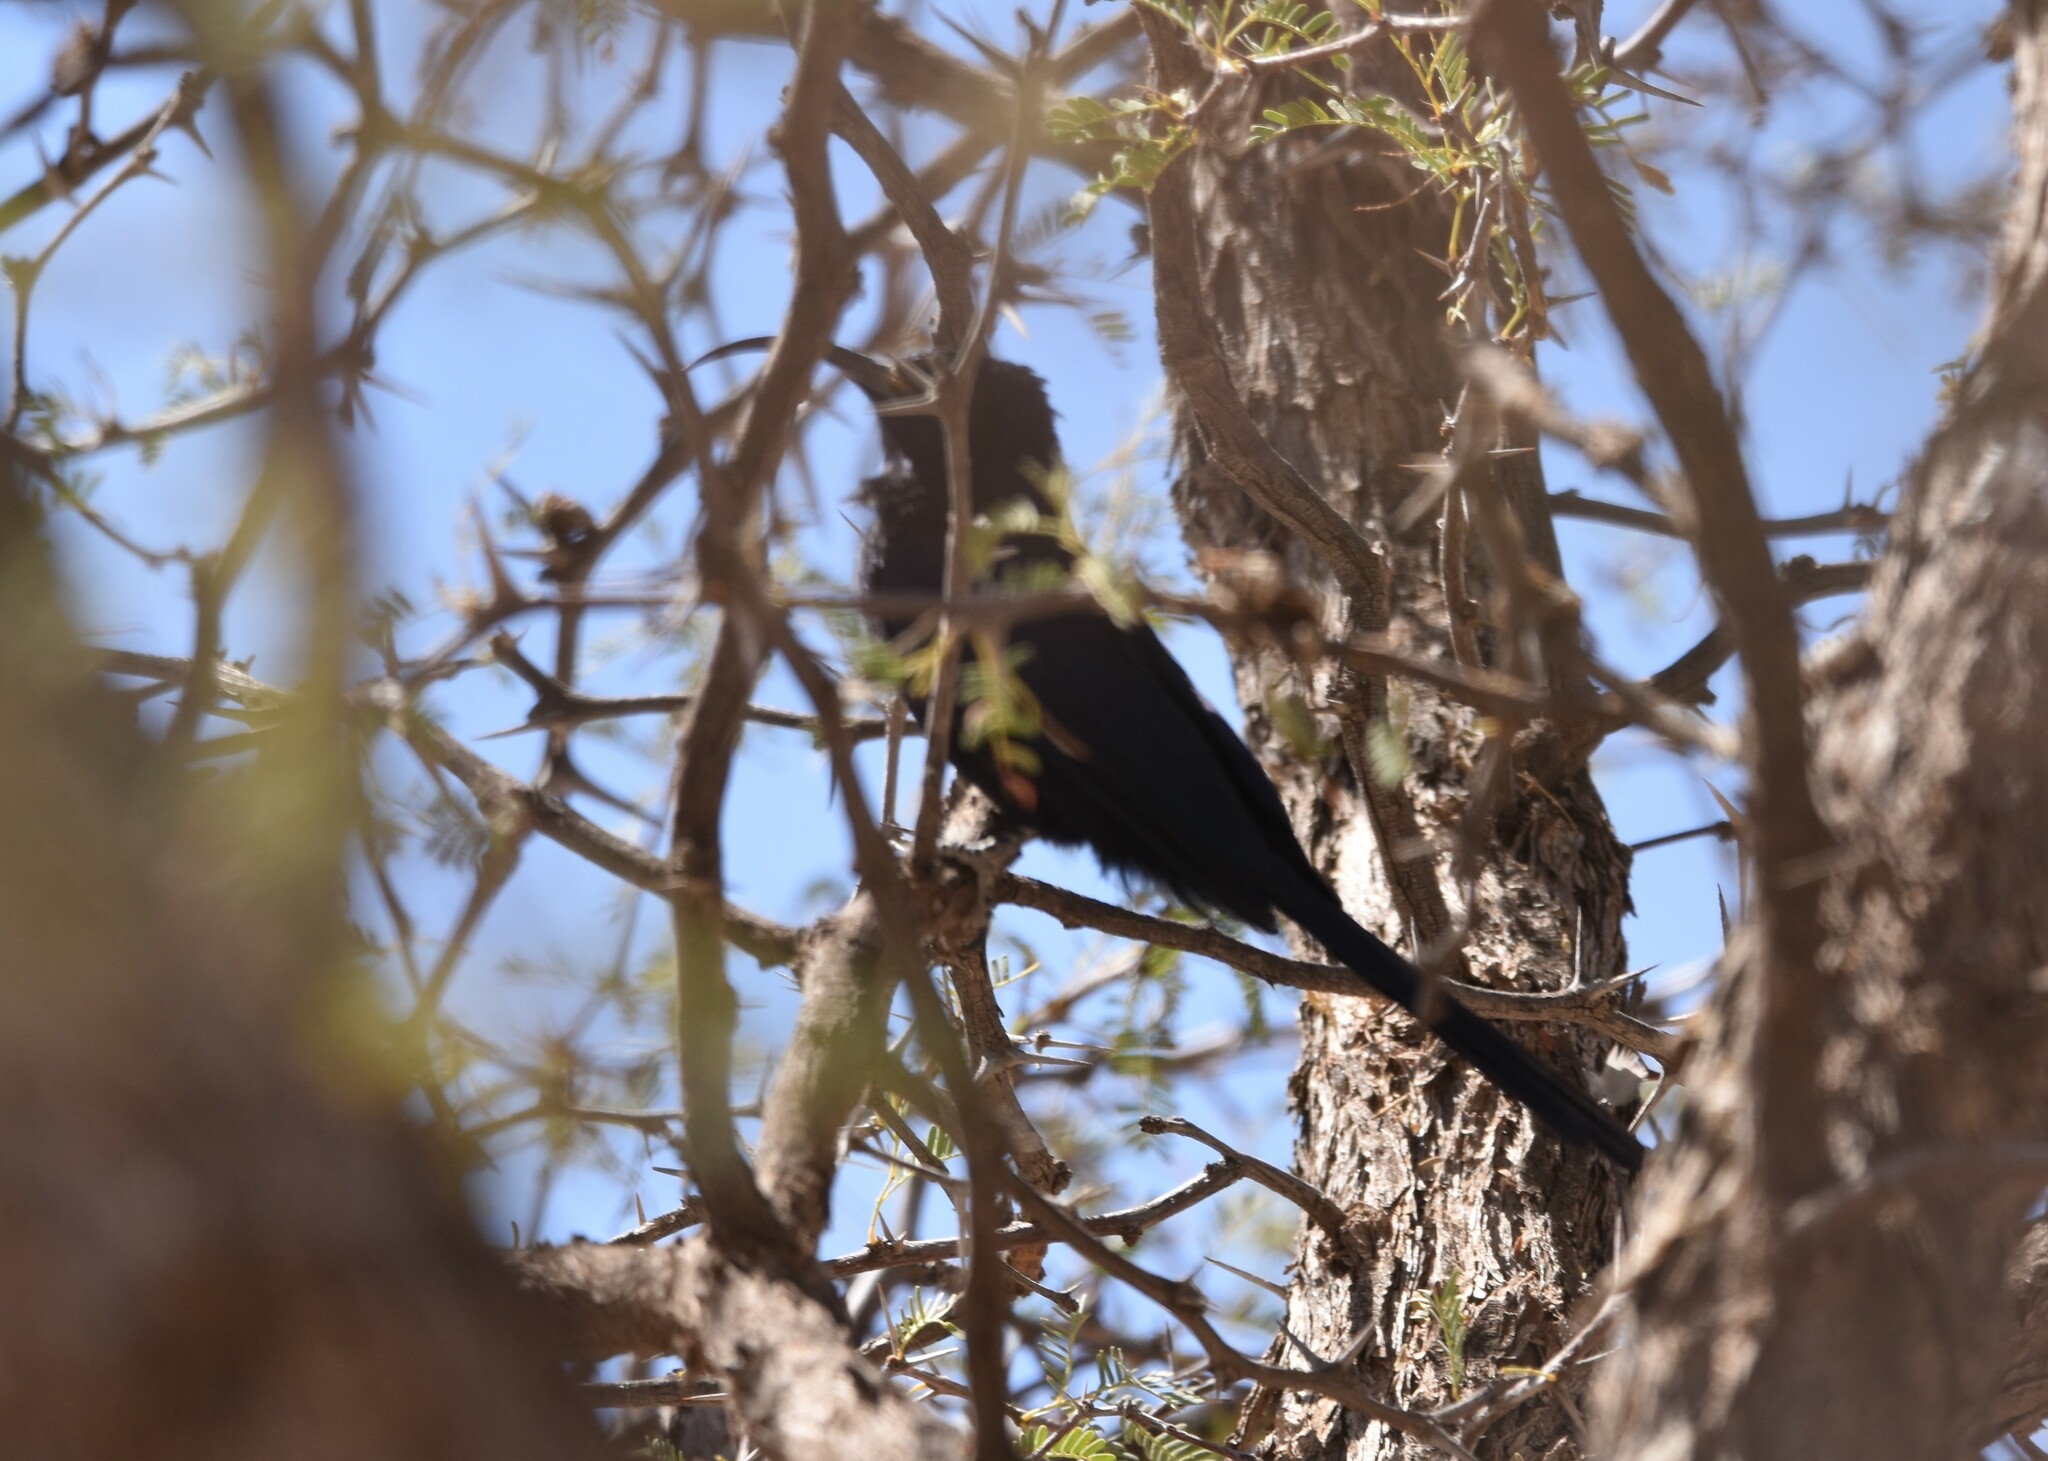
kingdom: Animalia
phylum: Chordata
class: Aves
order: Bucerotiformes
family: Phoeniculidae
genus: Rhinopomastus
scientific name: Rhinopomastus cyanomelas
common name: Common scimitarbill
